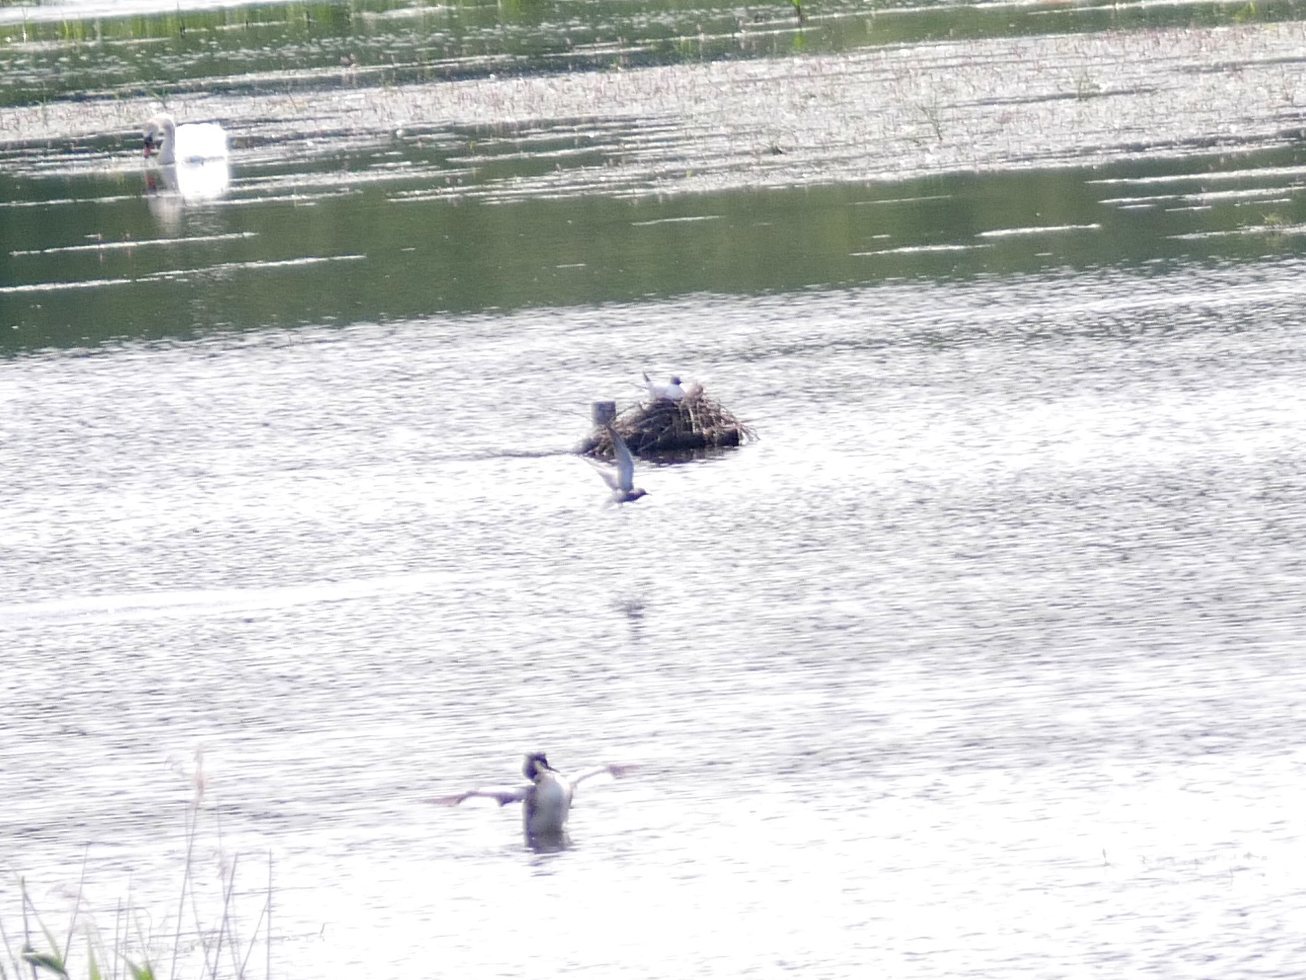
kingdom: Animalia
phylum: Chordata
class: Aves
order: Charadriiformes
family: Laridae
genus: Chlidonias
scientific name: Chlidonias niger
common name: Black tern
